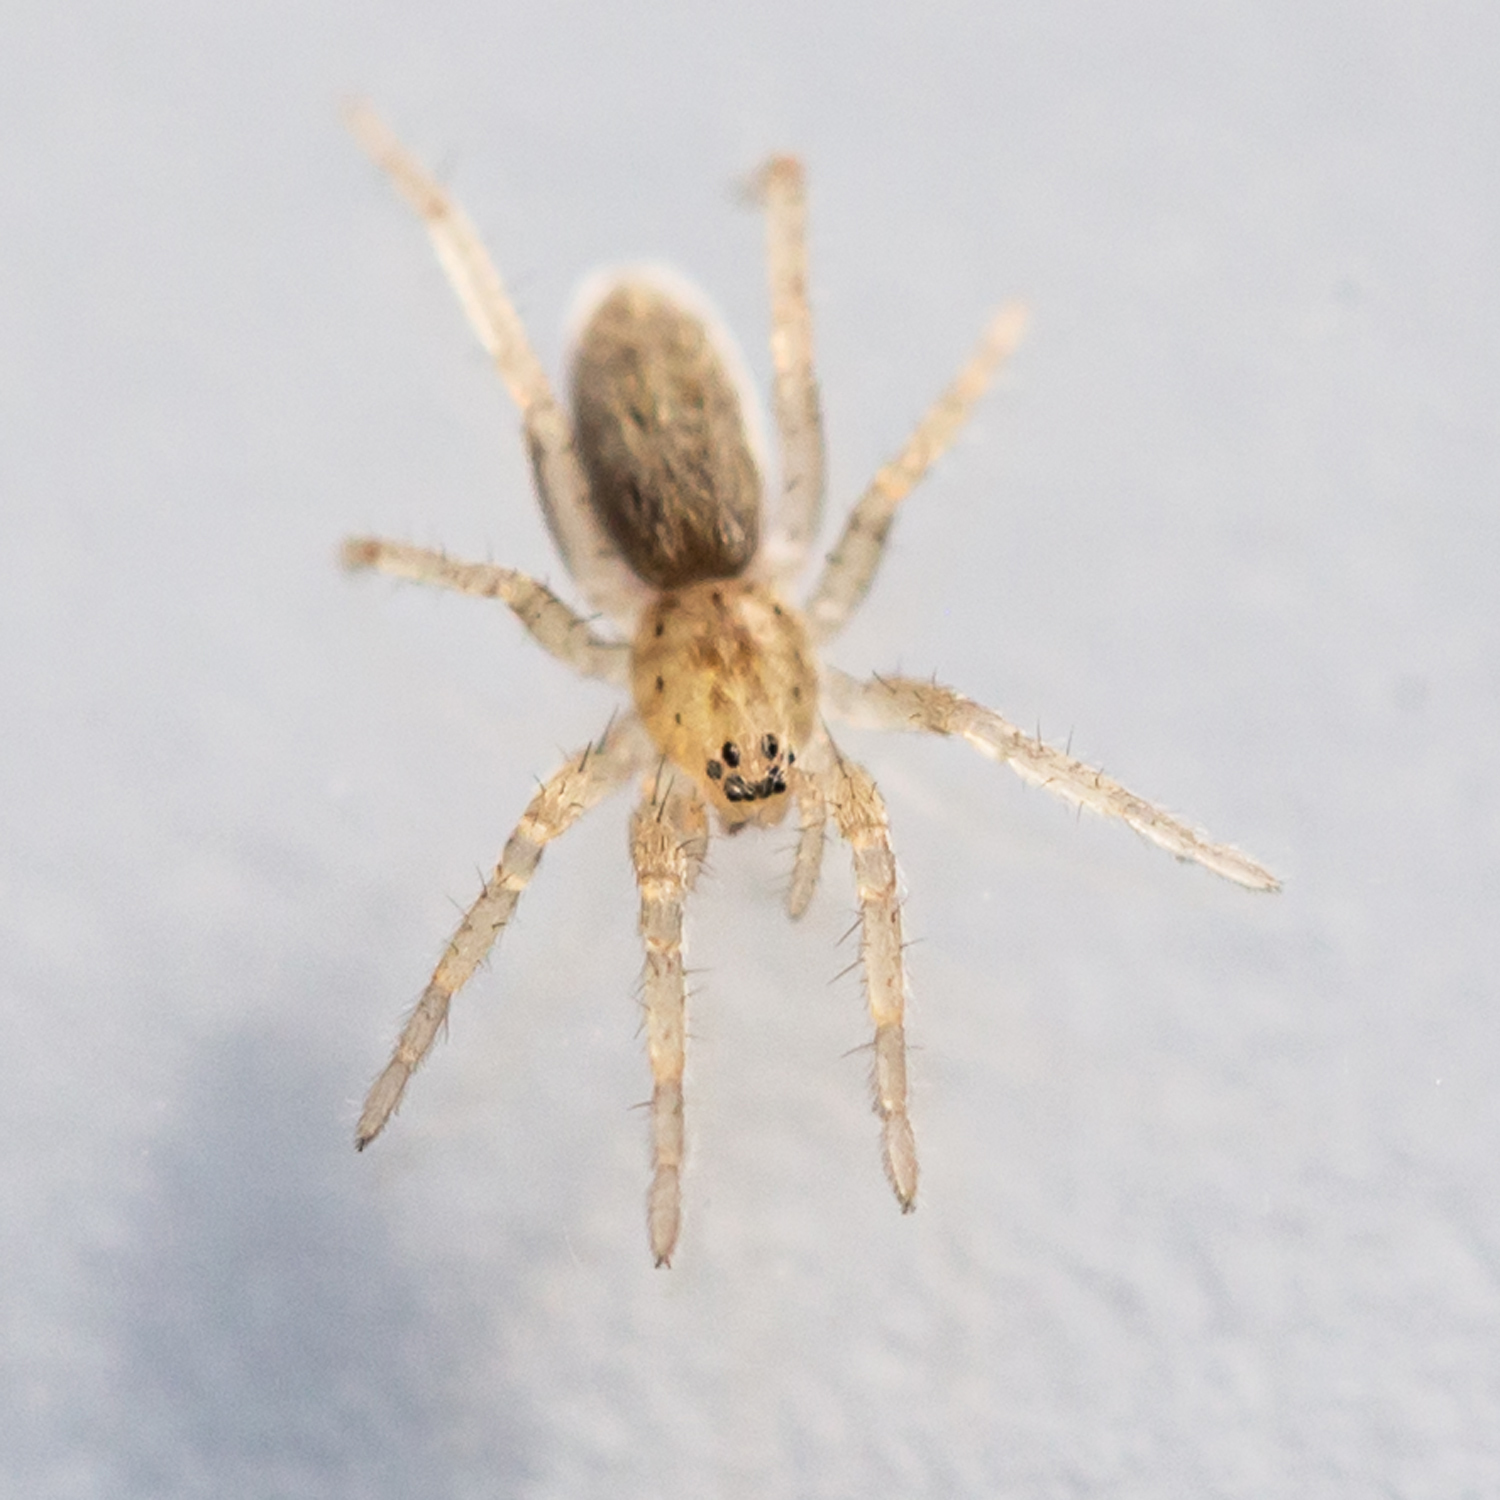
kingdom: Animalia
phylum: Arthropoda
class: Arachnida
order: Araneae
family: Anyphaenidae
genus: Arachosia
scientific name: Arachosia cubana
